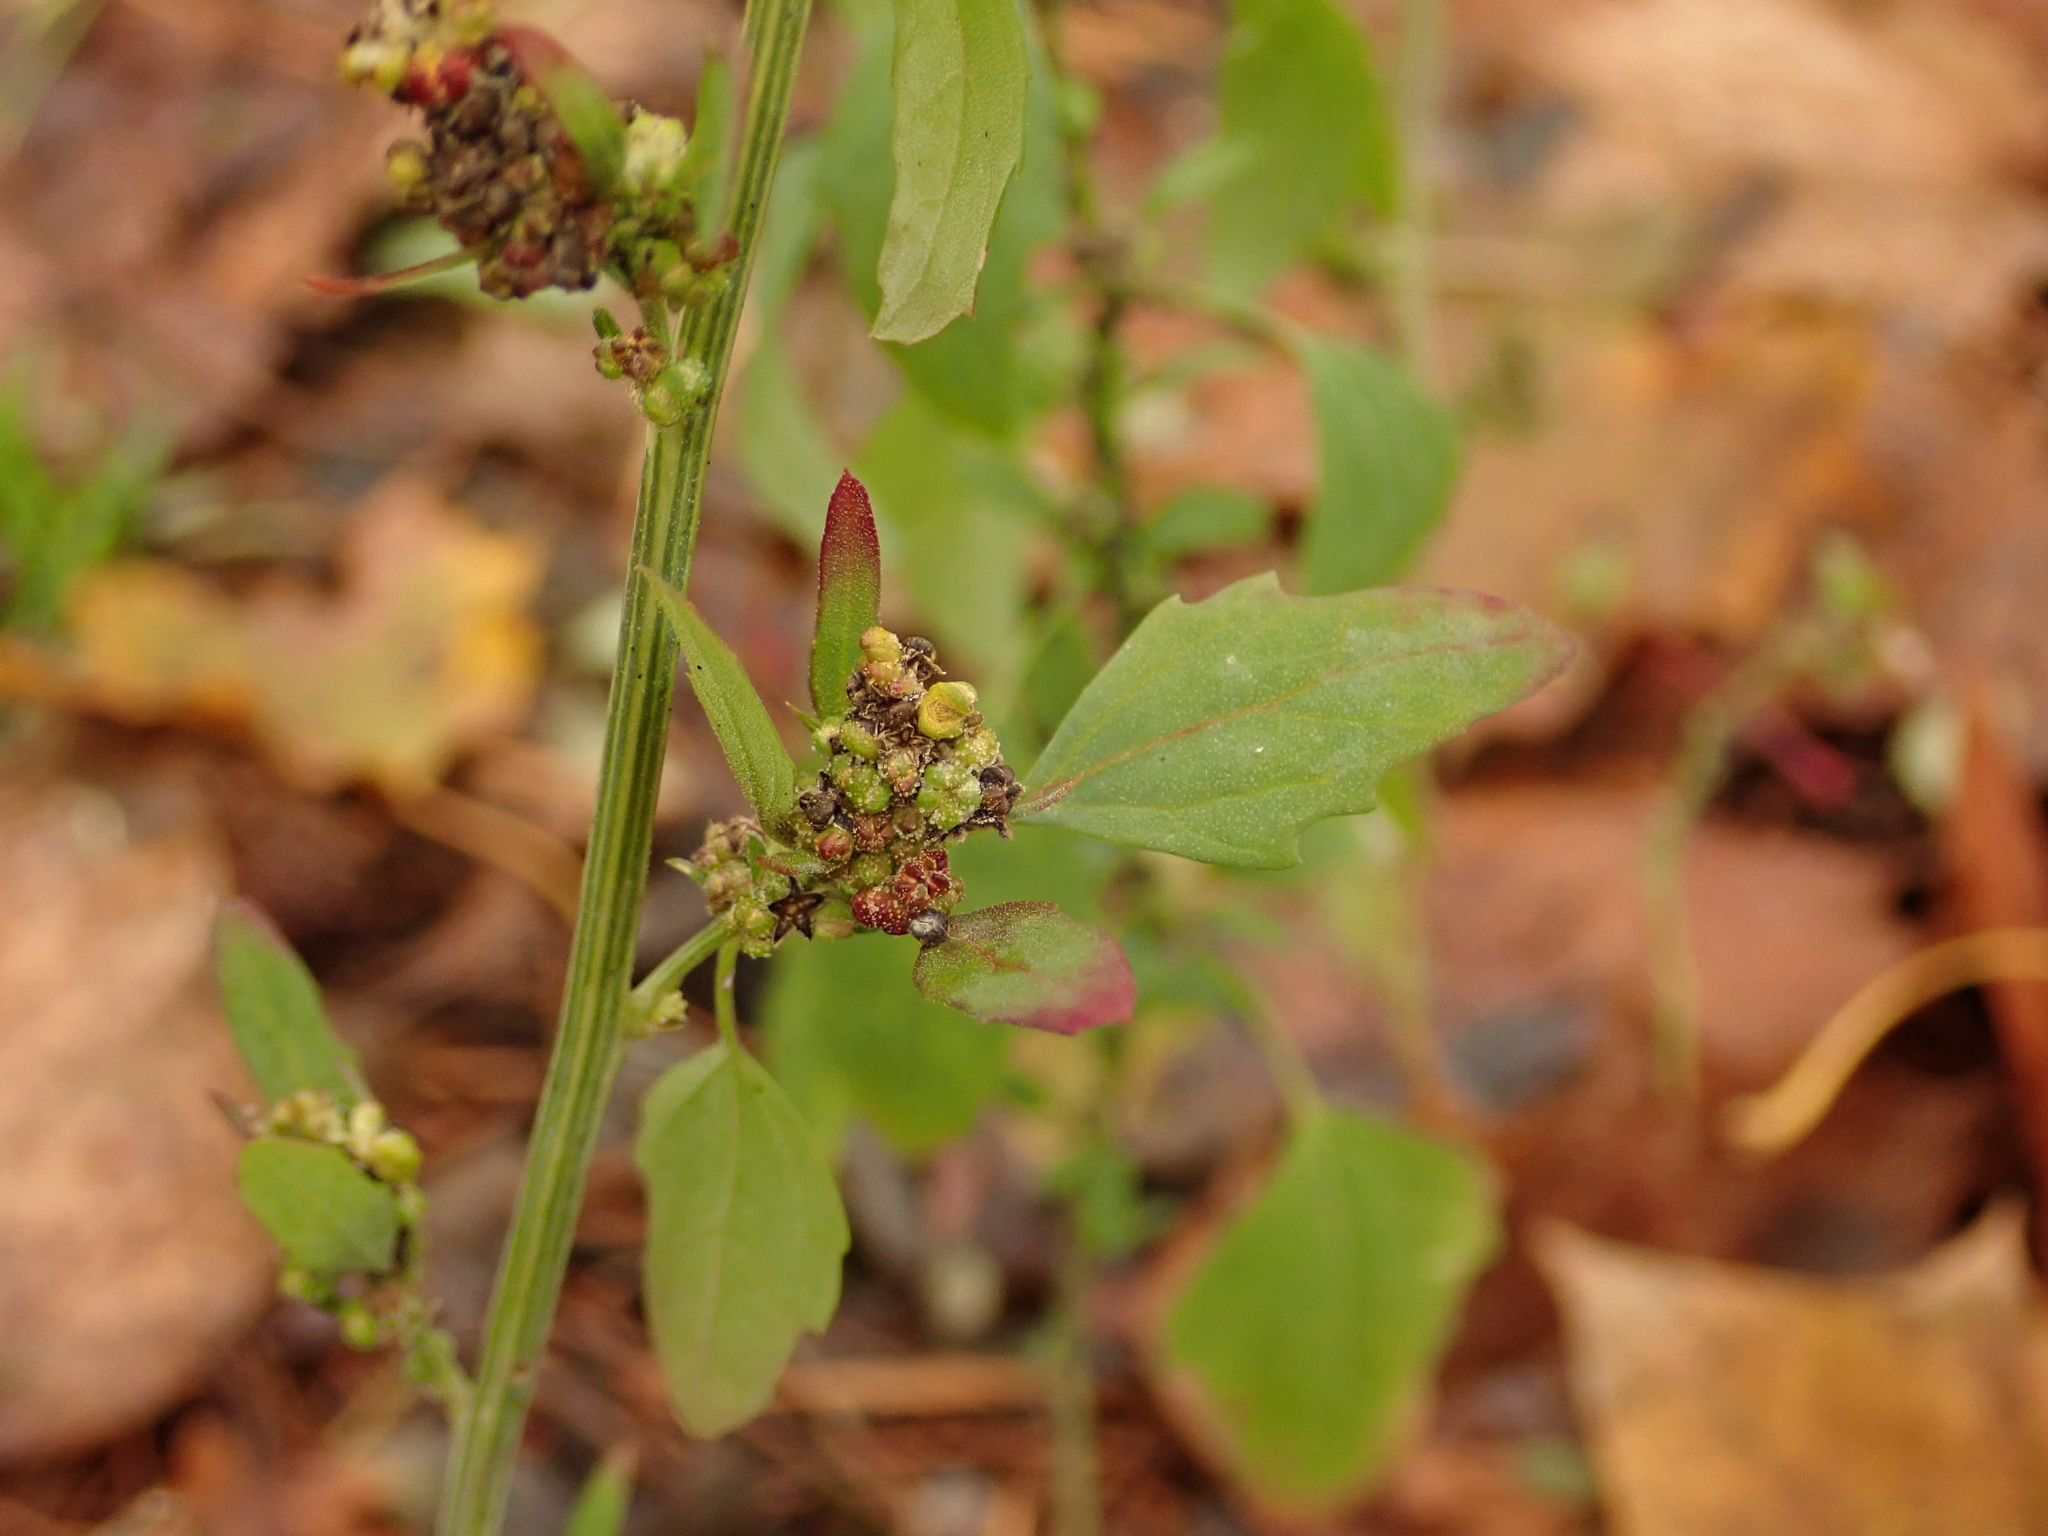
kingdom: Plantae
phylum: Tracheophyta
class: Magnoliopsida
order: Caryophyllales
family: Amaranthaceae
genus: Chenopodium
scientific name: Chenopodium album
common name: Fat-hen
